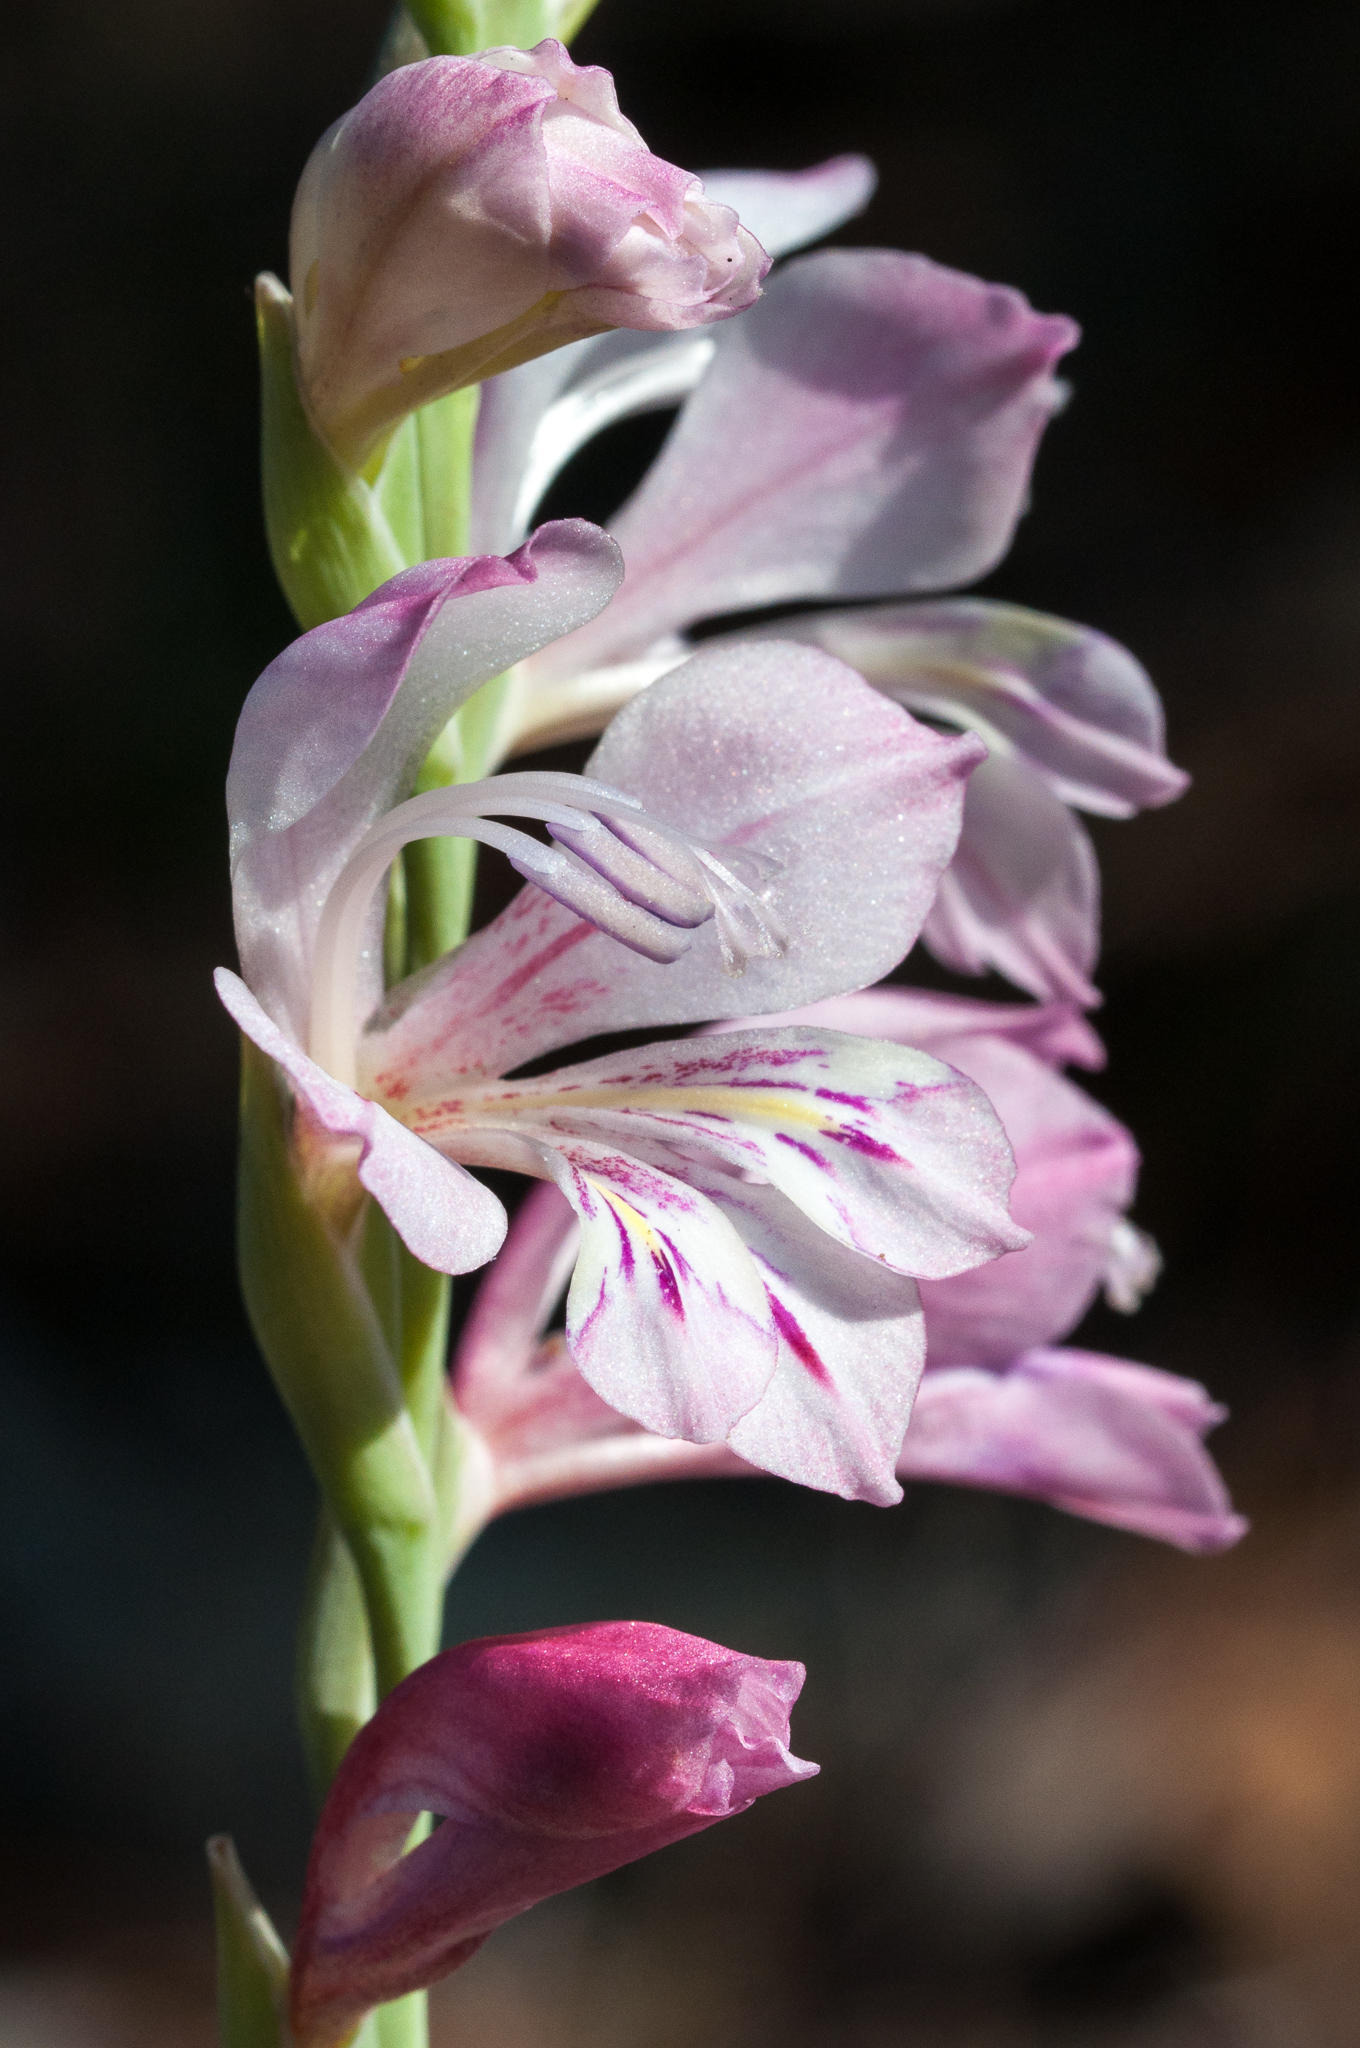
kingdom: Plantae
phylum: Tracheophyta
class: Liliopsida
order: Asparagales
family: Iridaceae
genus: Gladiolus
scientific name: Gladiolus brevifolius
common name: March pypie
